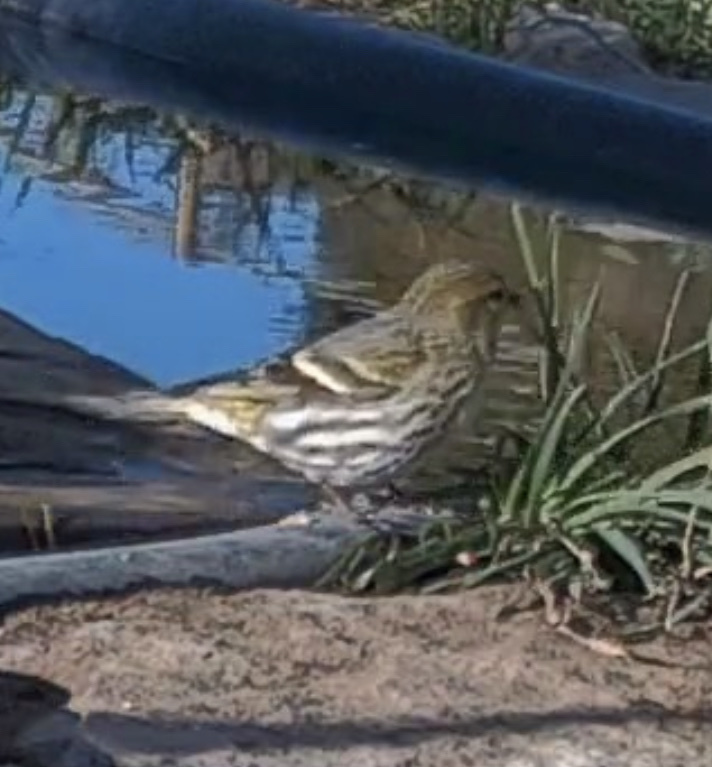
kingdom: Animalia
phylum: Chordata
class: Aves
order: Passeriformes
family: Fringillidae
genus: Spinus
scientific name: Spinus spinus
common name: Eurasian siskin
